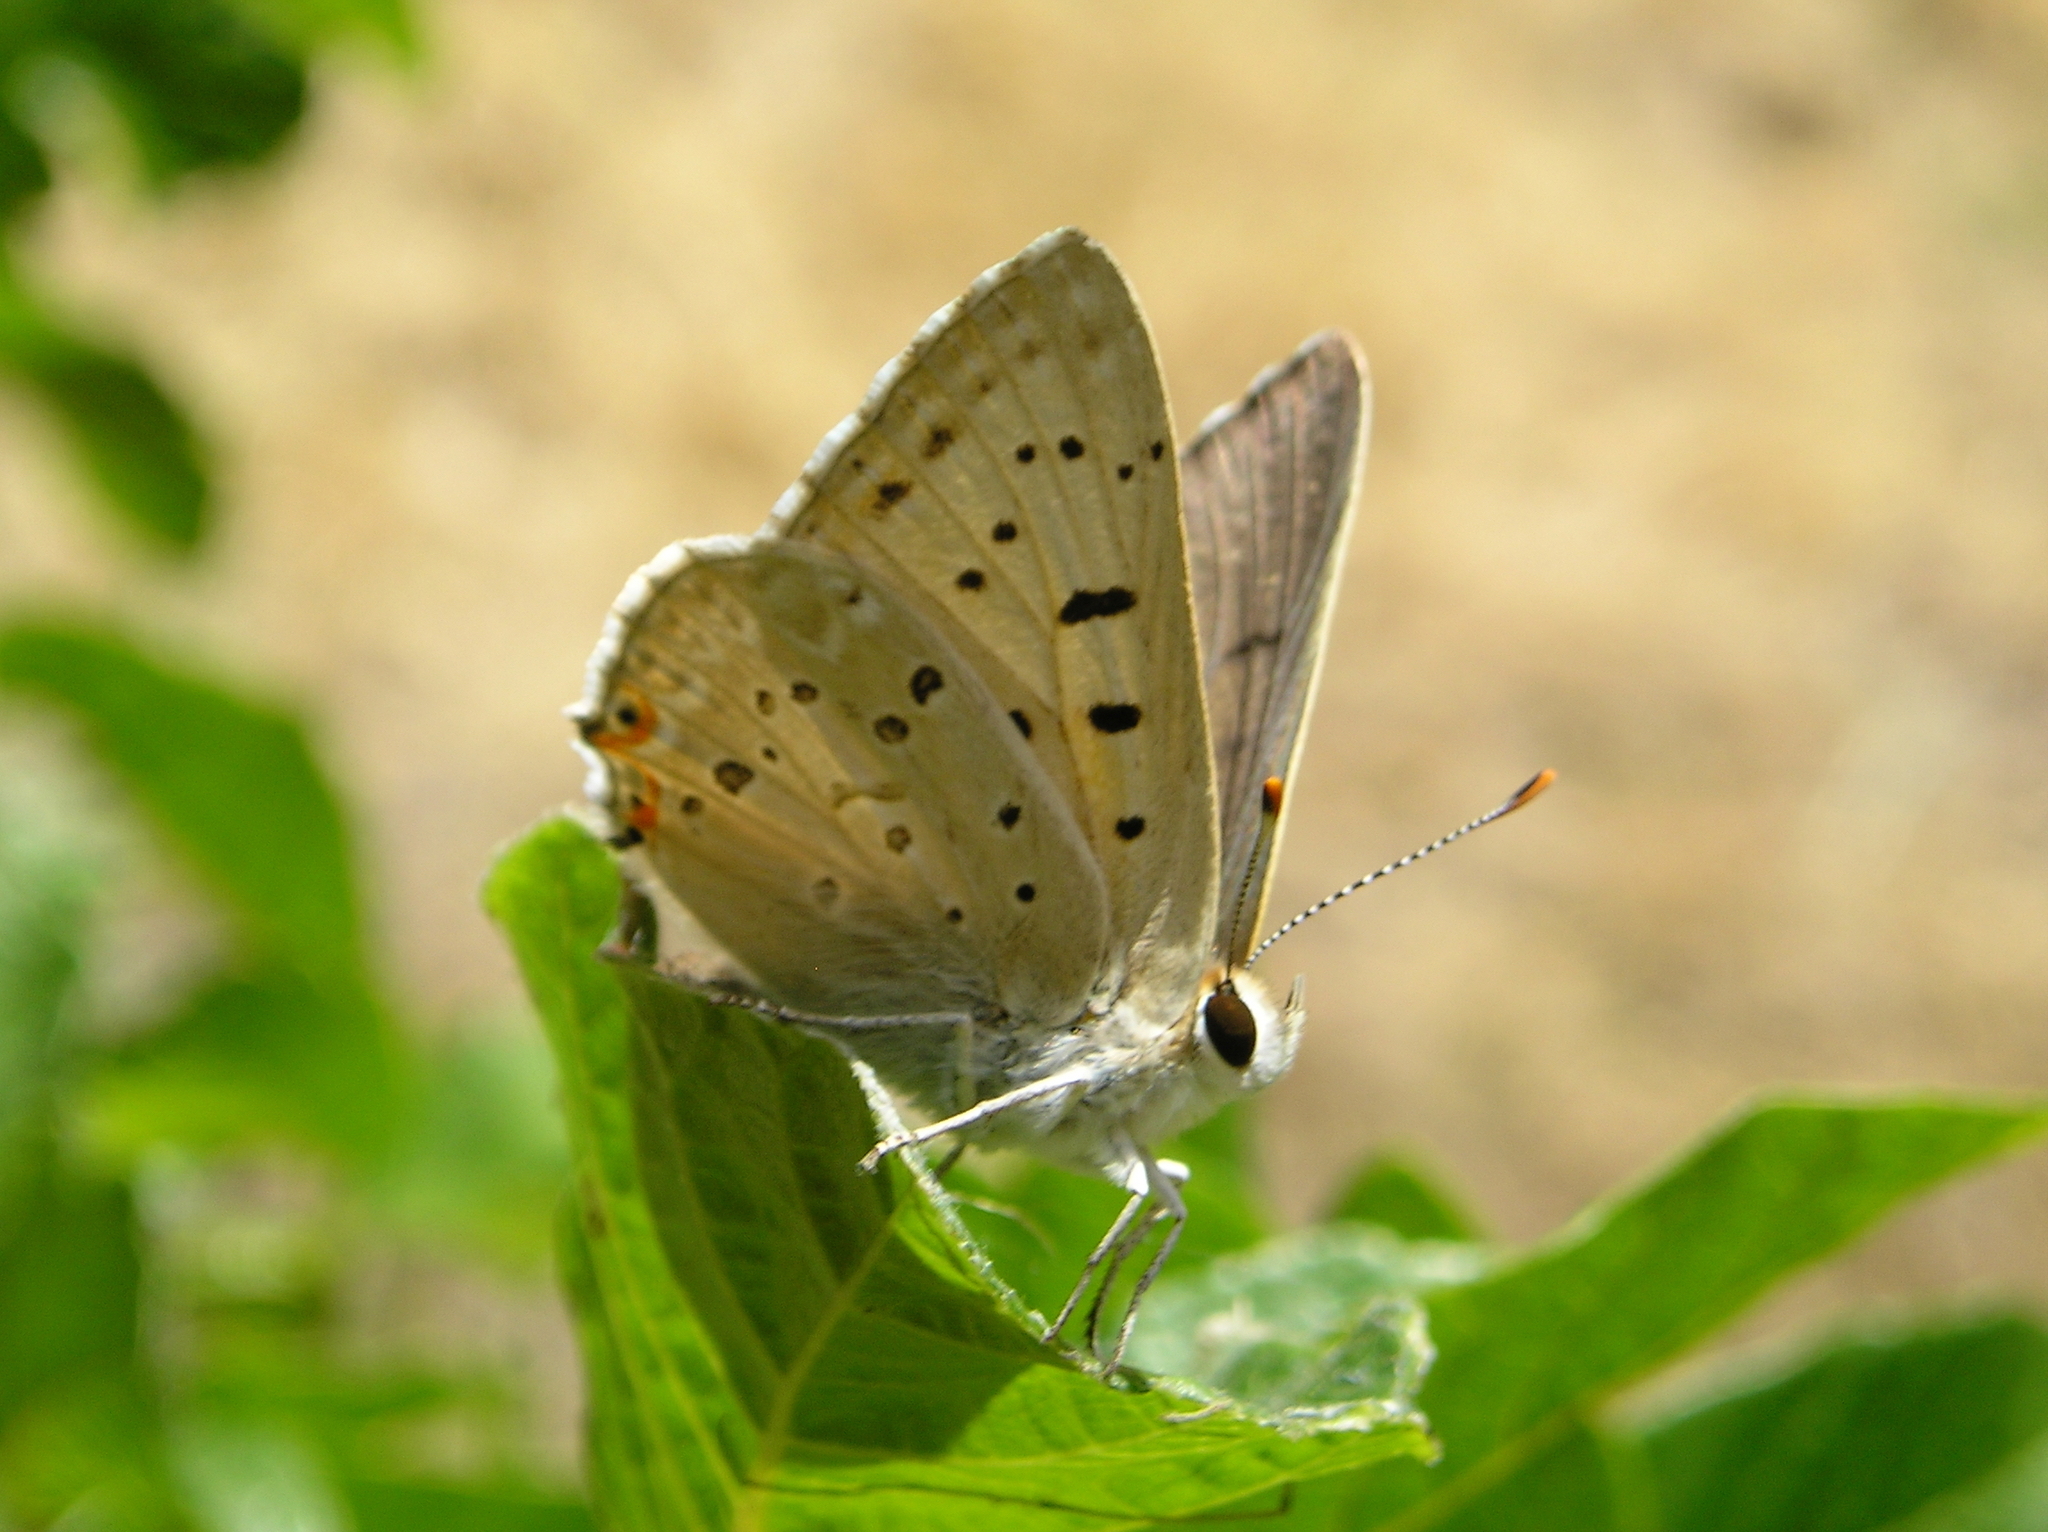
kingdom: Animalia
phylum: Arthropoda
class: Insecta
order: Lepidoptera
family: Lycaenidae
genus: Tharsalea
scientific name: Tharsalea xanthoides
